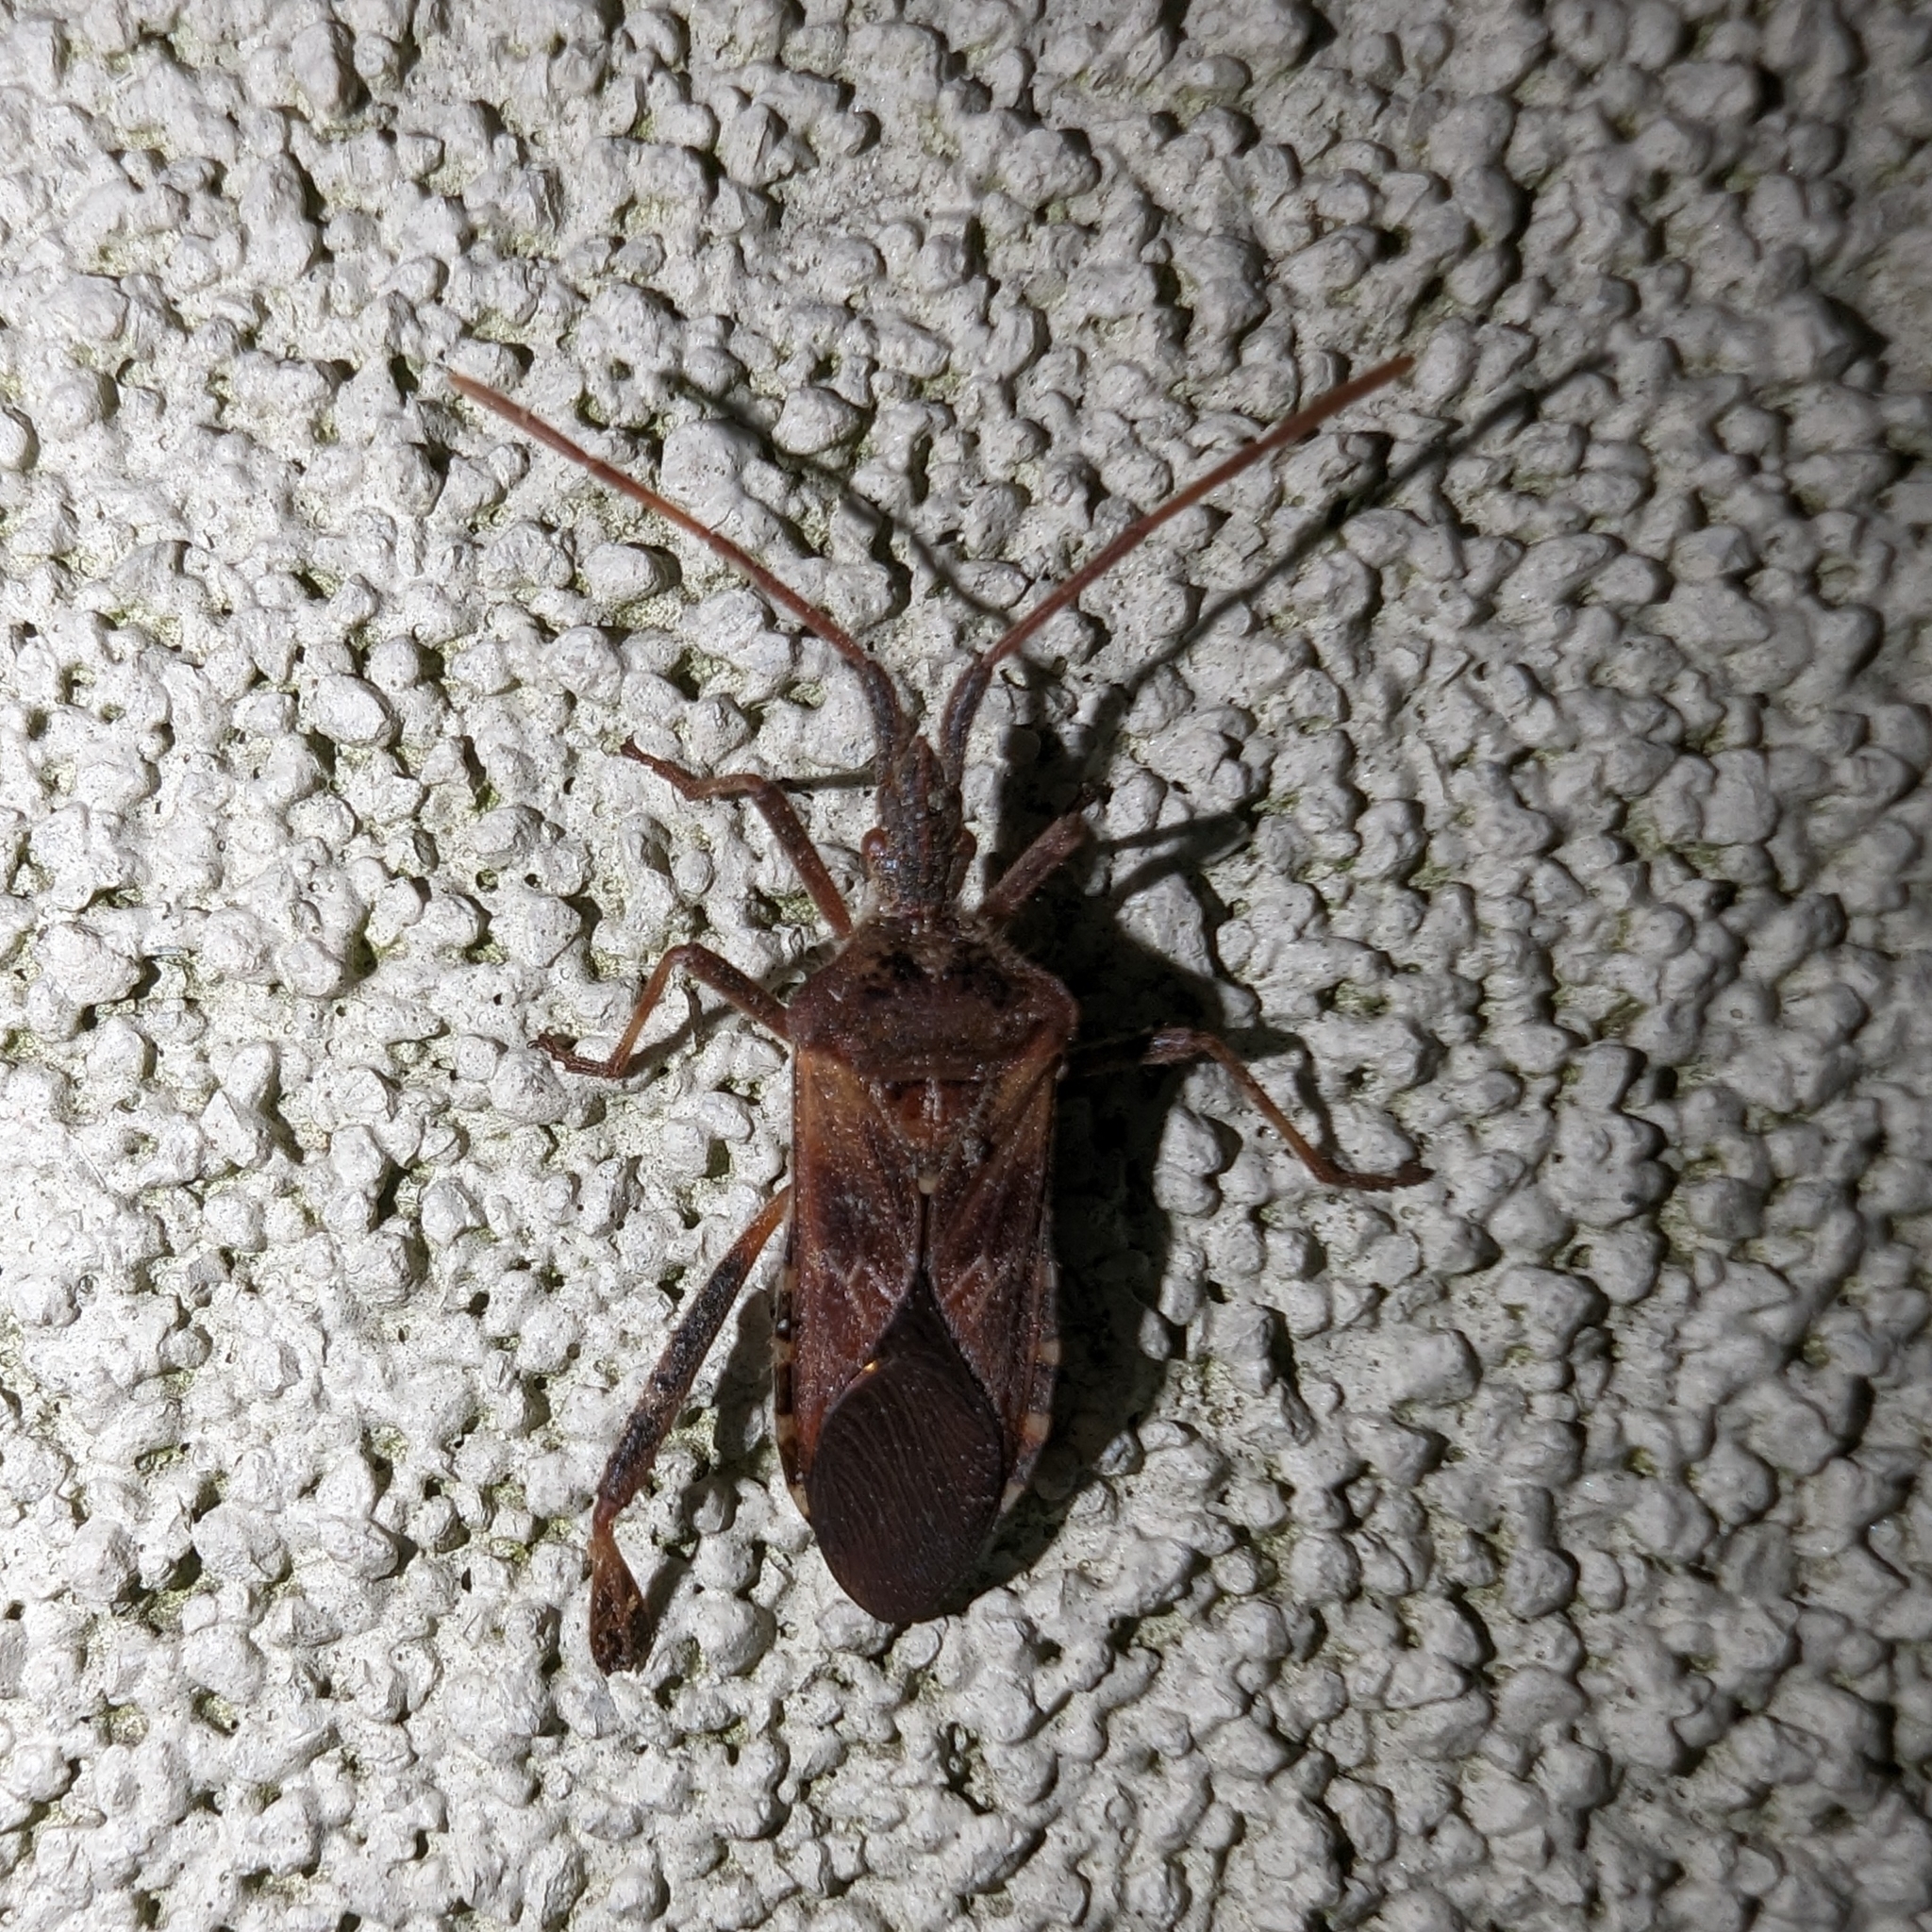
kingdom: Animalia
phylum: Arthropoda
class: Insecta
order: Hemiptera
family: Coreidae
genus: Leptoglossus
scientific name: Leptoglossus occidentalis
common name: Western conifer-seed bug
